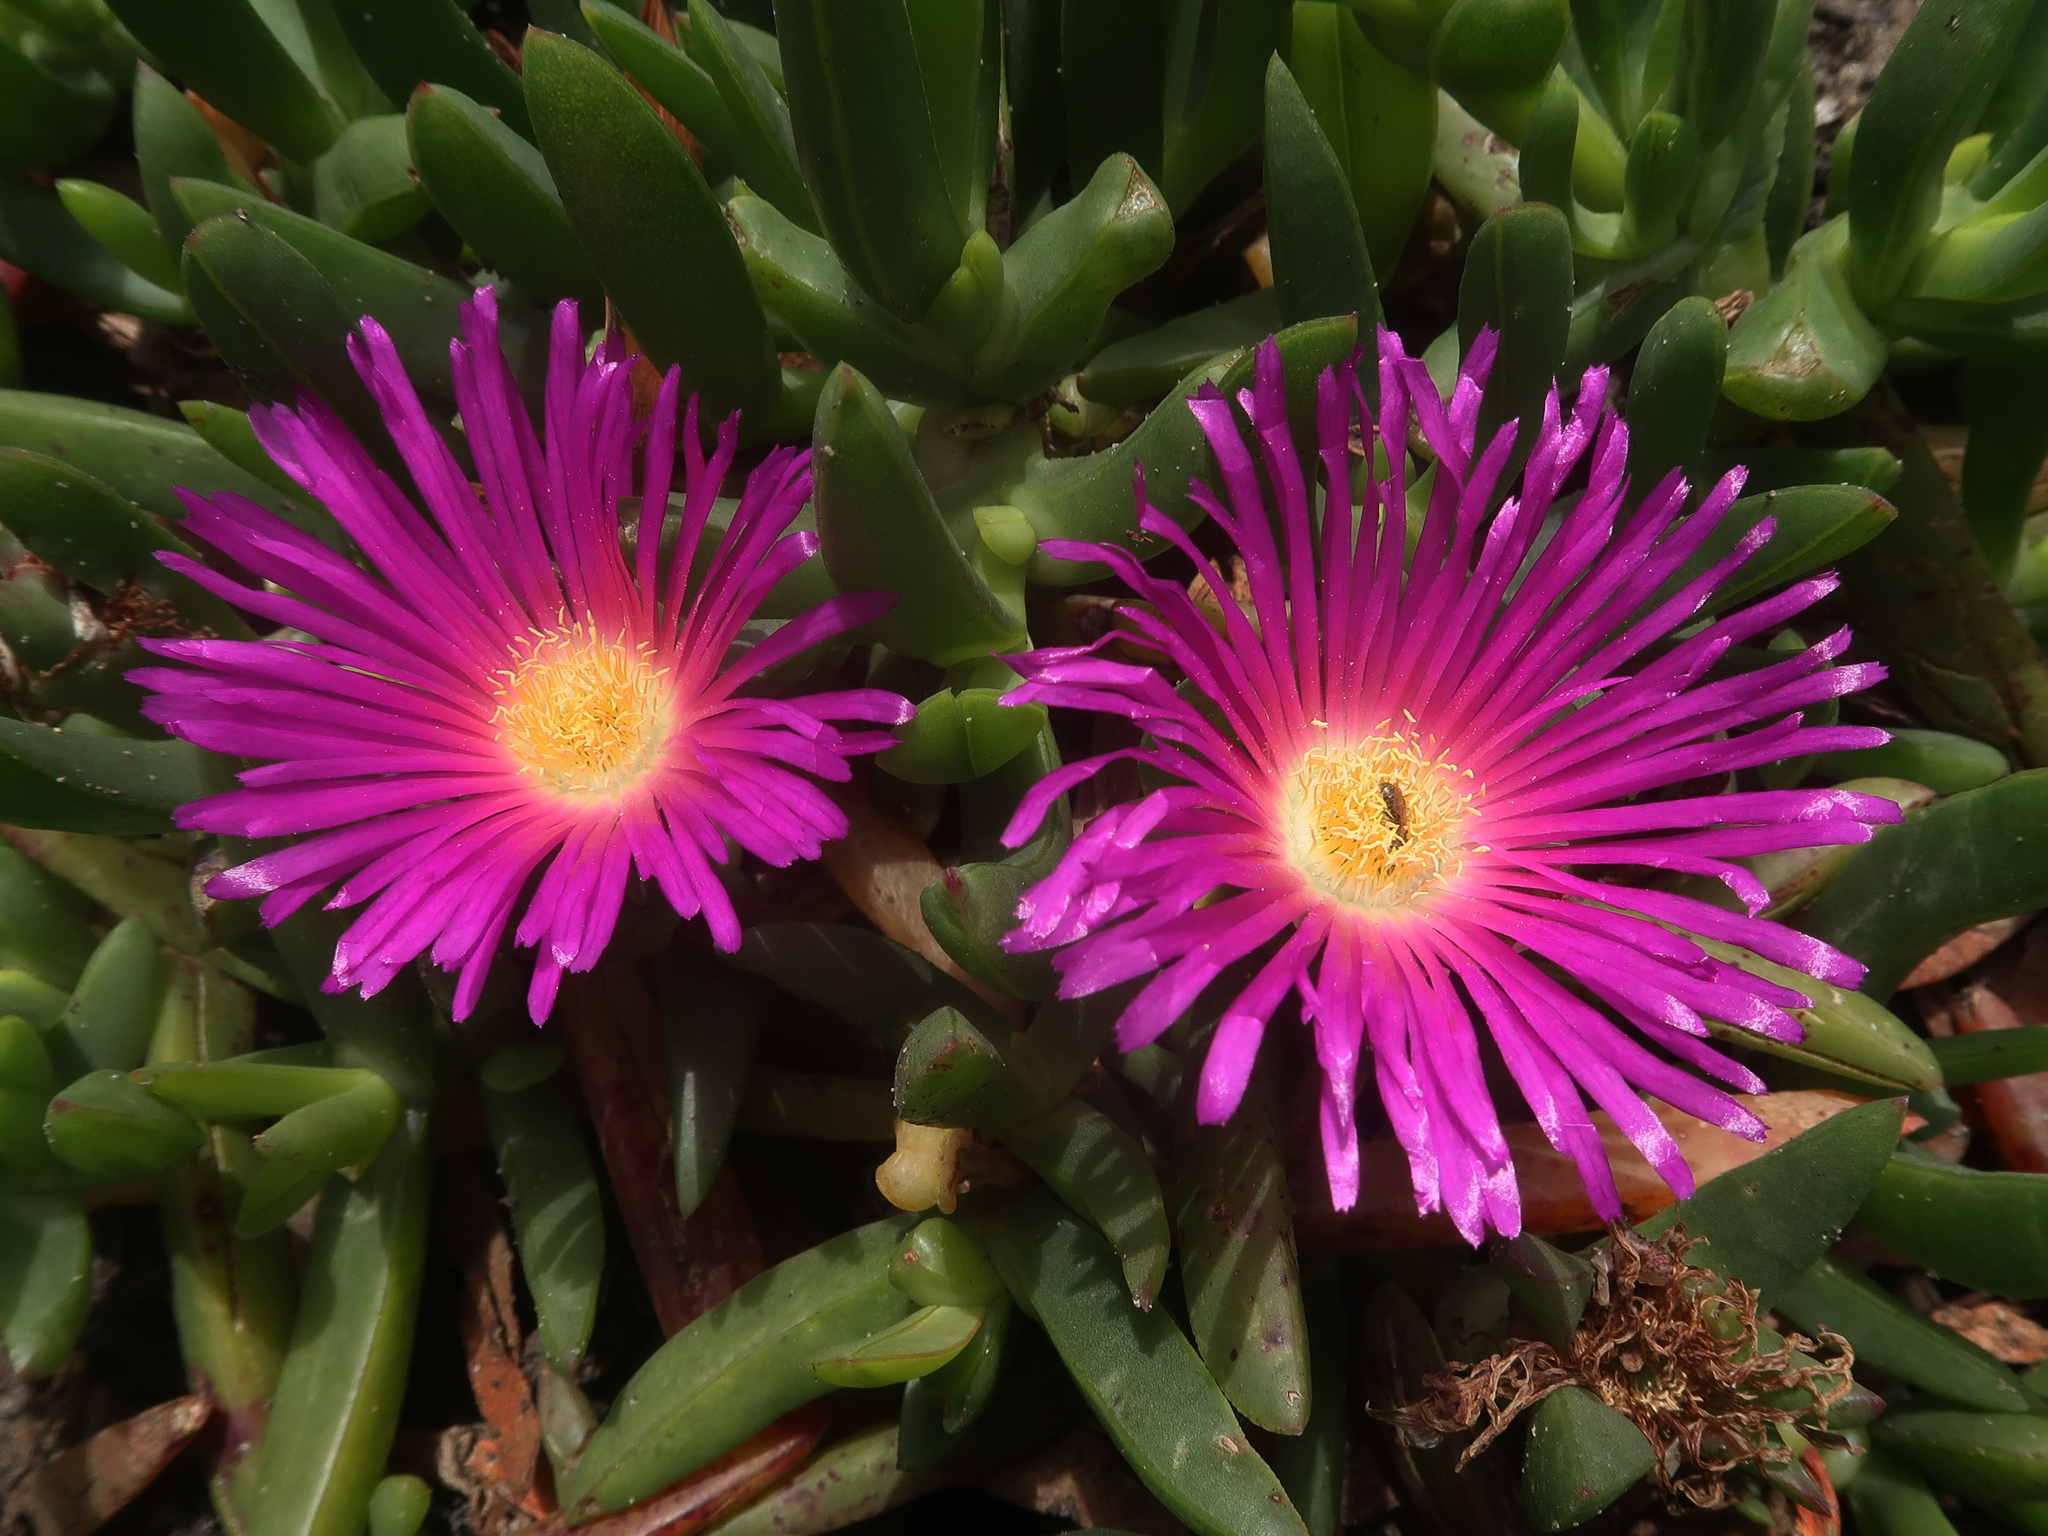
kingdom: Plantae
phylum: Tracheophyta
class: Magnoliopsida
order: Caryophyllales
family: Aizoaceae
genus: Carpobrotus
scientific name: Carpobrotus rossii
